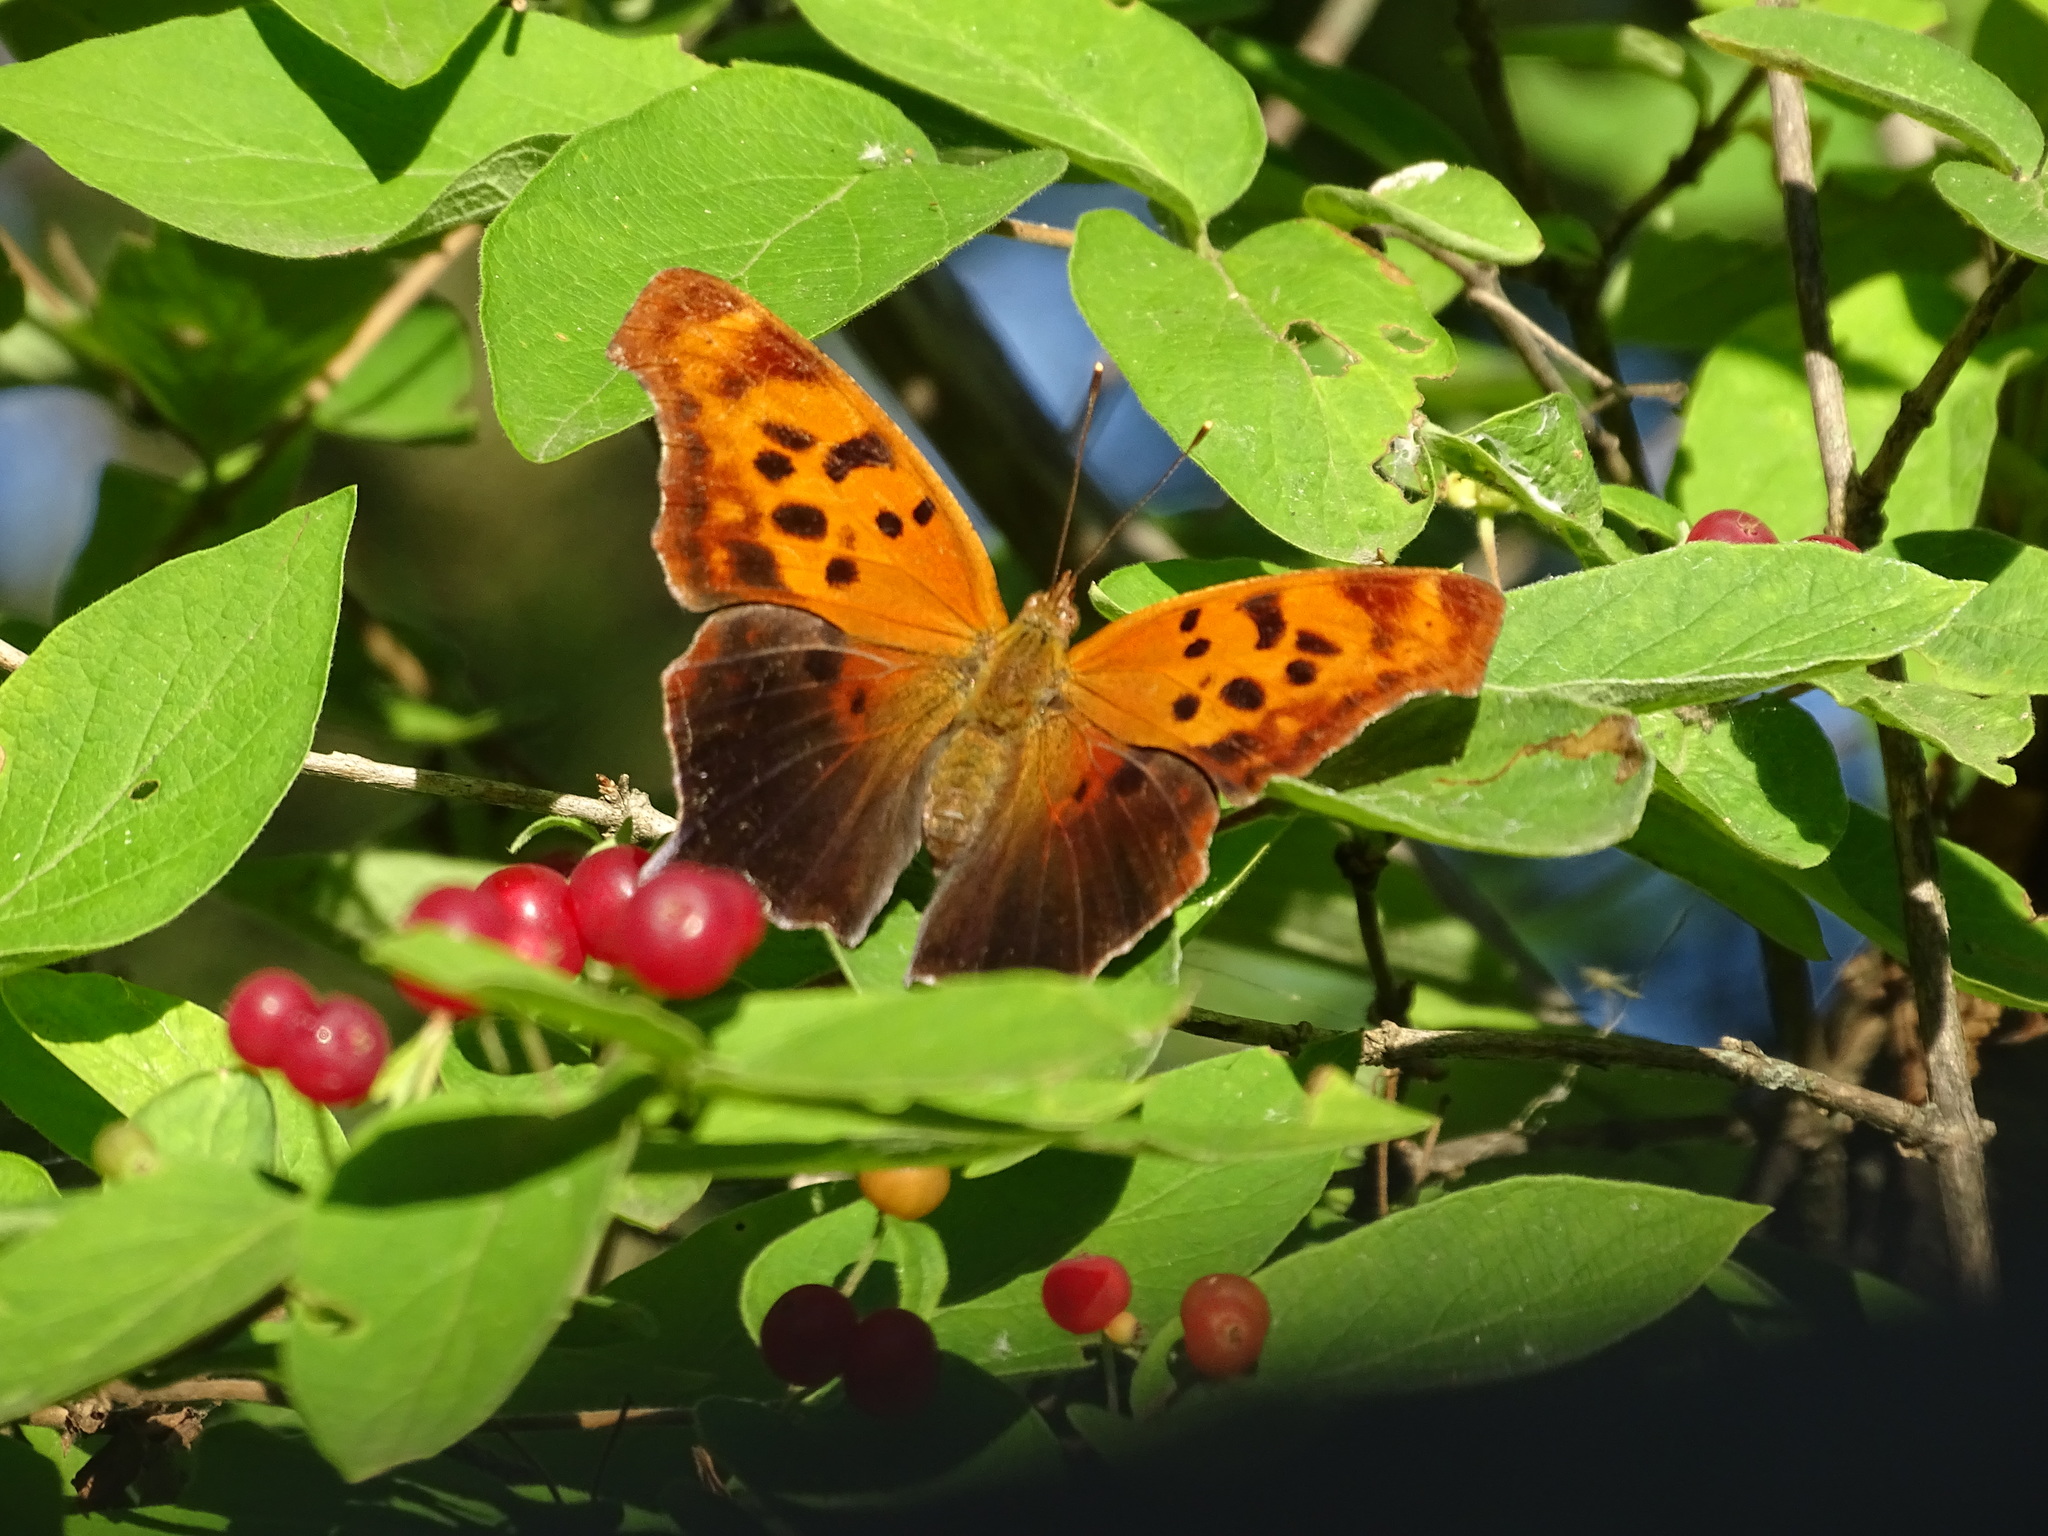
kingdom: Animalia
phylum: Arthropoda
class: Insecta
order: Lepidoptera
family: Nymphalidae
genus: Polygonia
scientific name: Polygonia interrogationis
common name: Question mark
